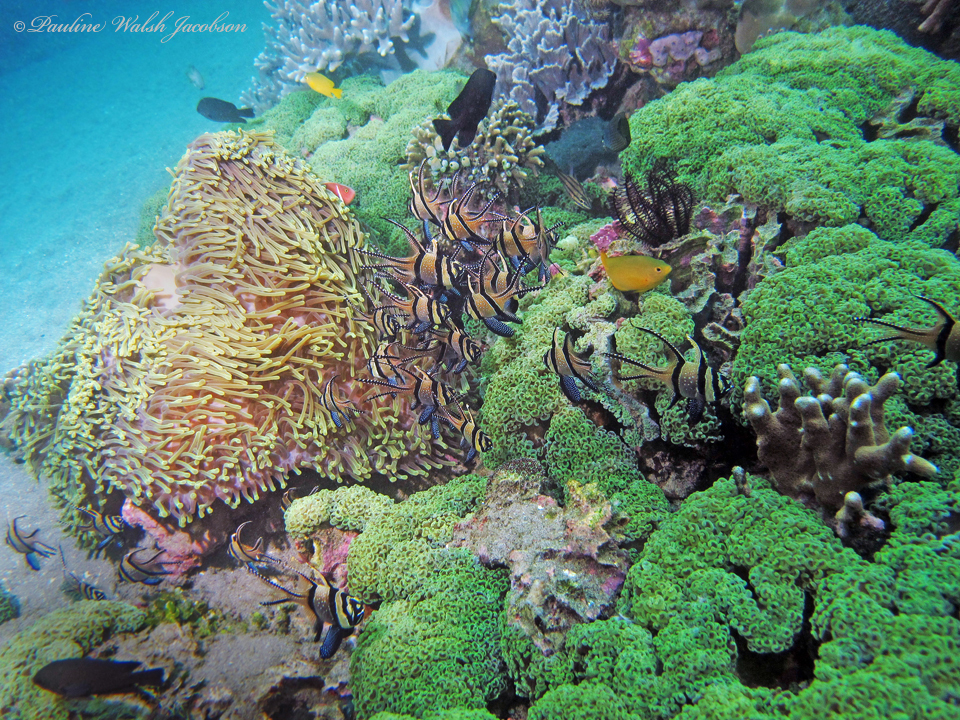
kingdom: Animalia
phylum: Chordata
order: Perciformes
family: Apogonidae
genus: Pterapogon
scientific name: Pterapogon kauderni
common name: Banggai cardinalfish
